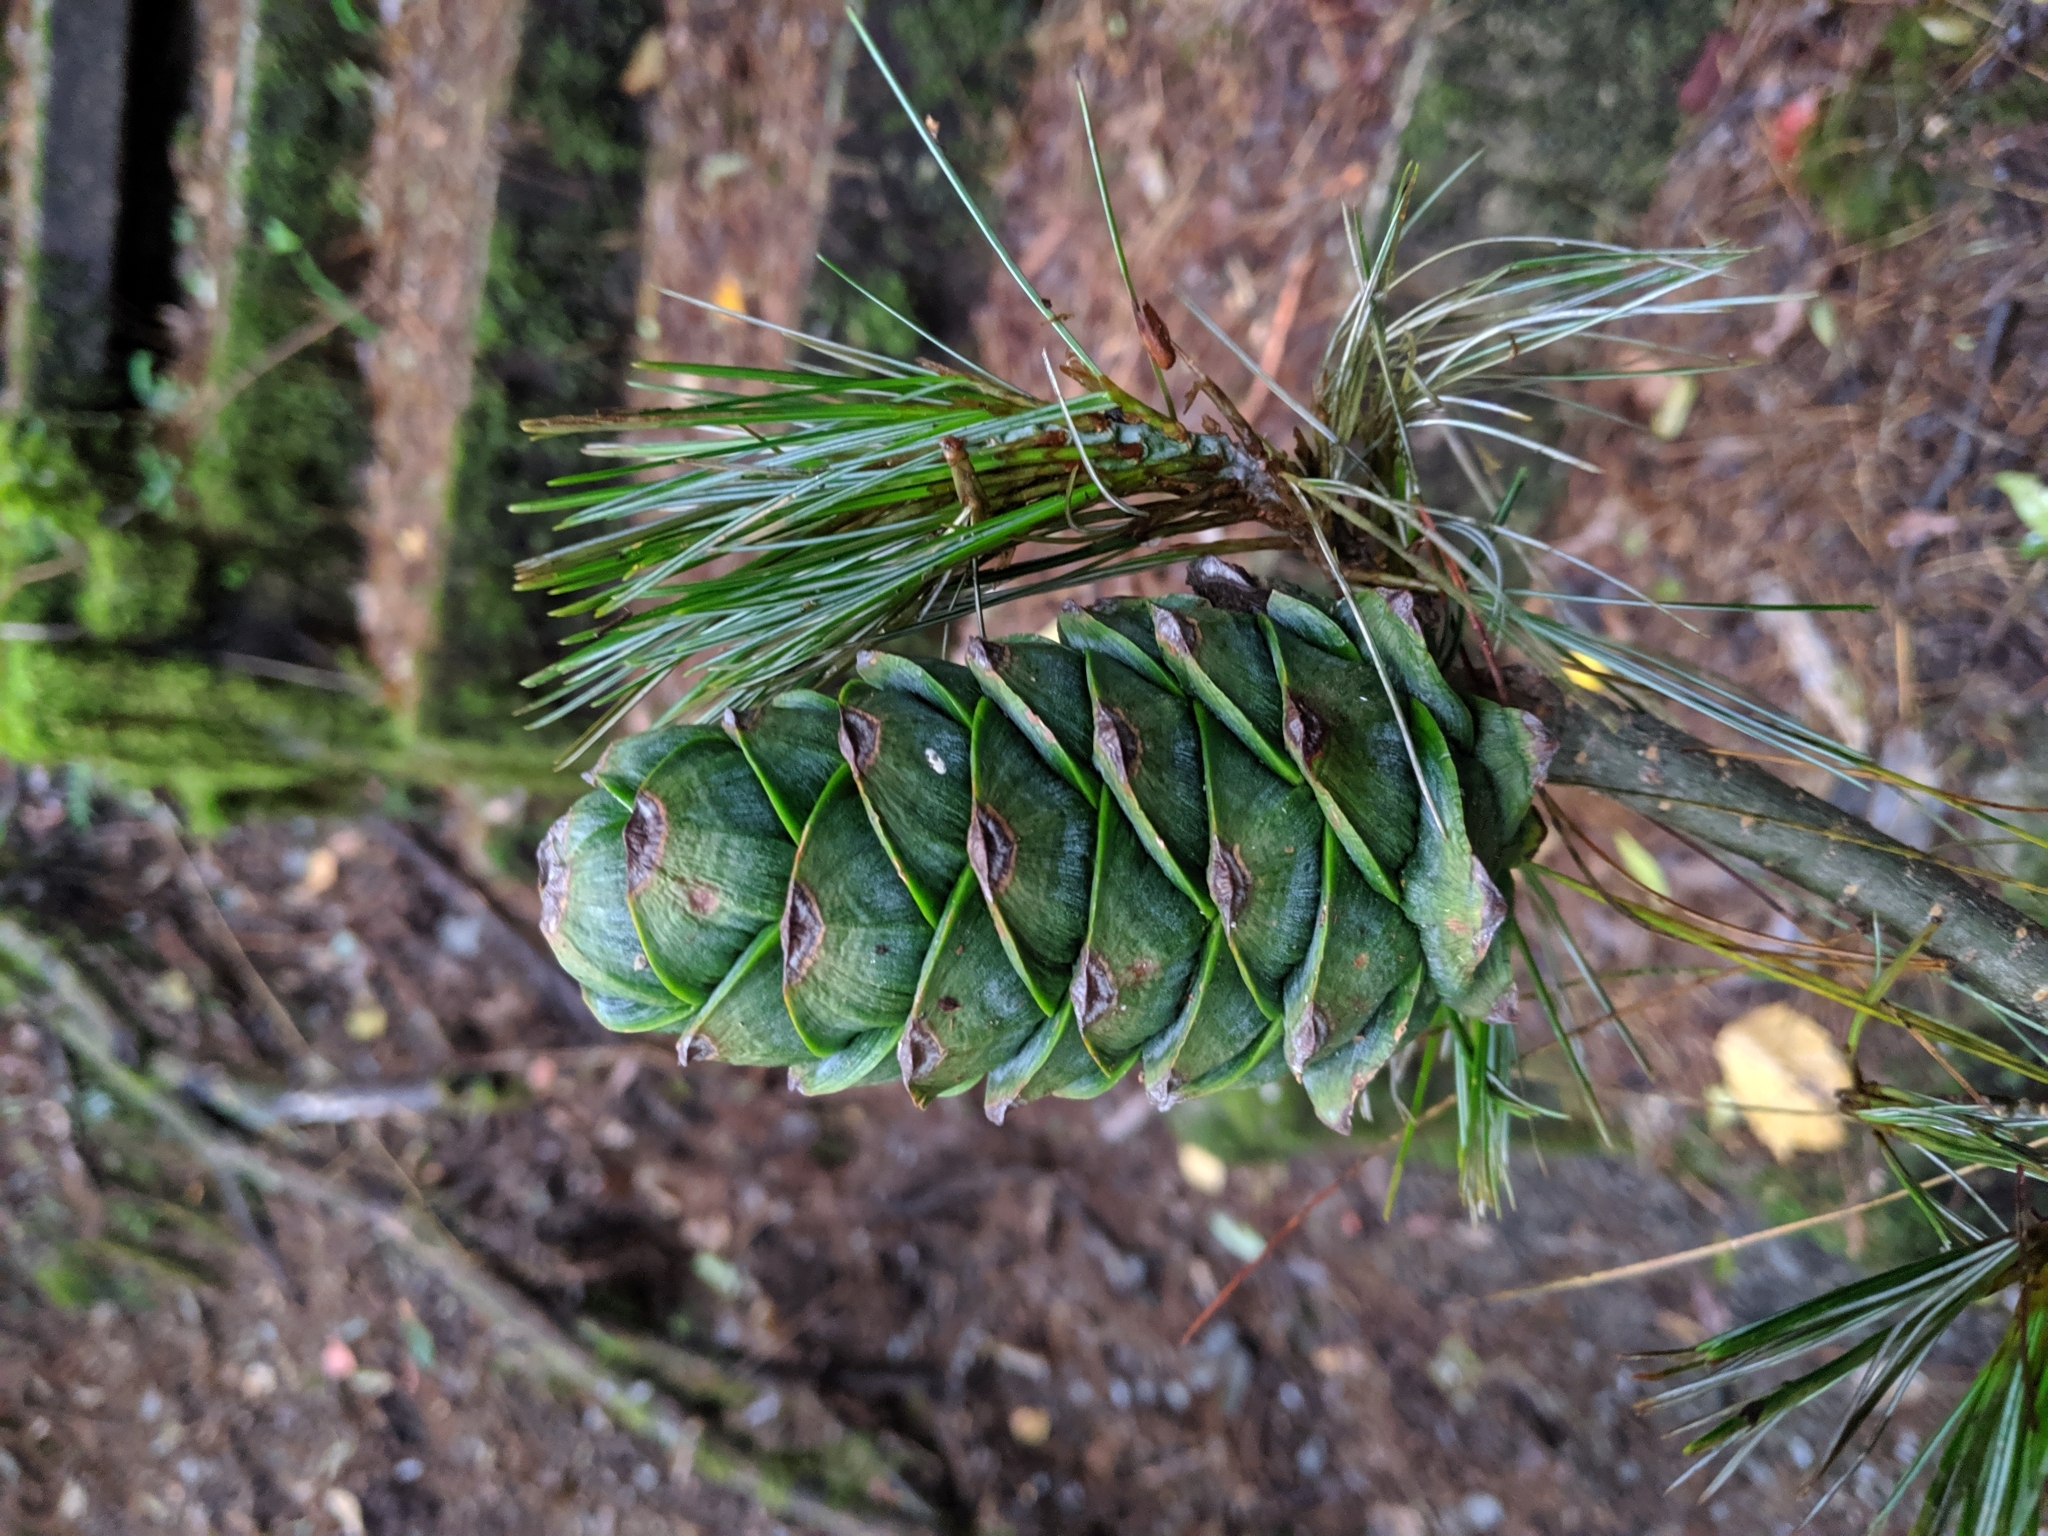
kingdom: Plantae
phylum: Tracheophyta
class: Pinopsida
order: Pinales
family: Pinaceae
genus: Pinus
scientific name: Pinus armandii
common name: Armand's pine
